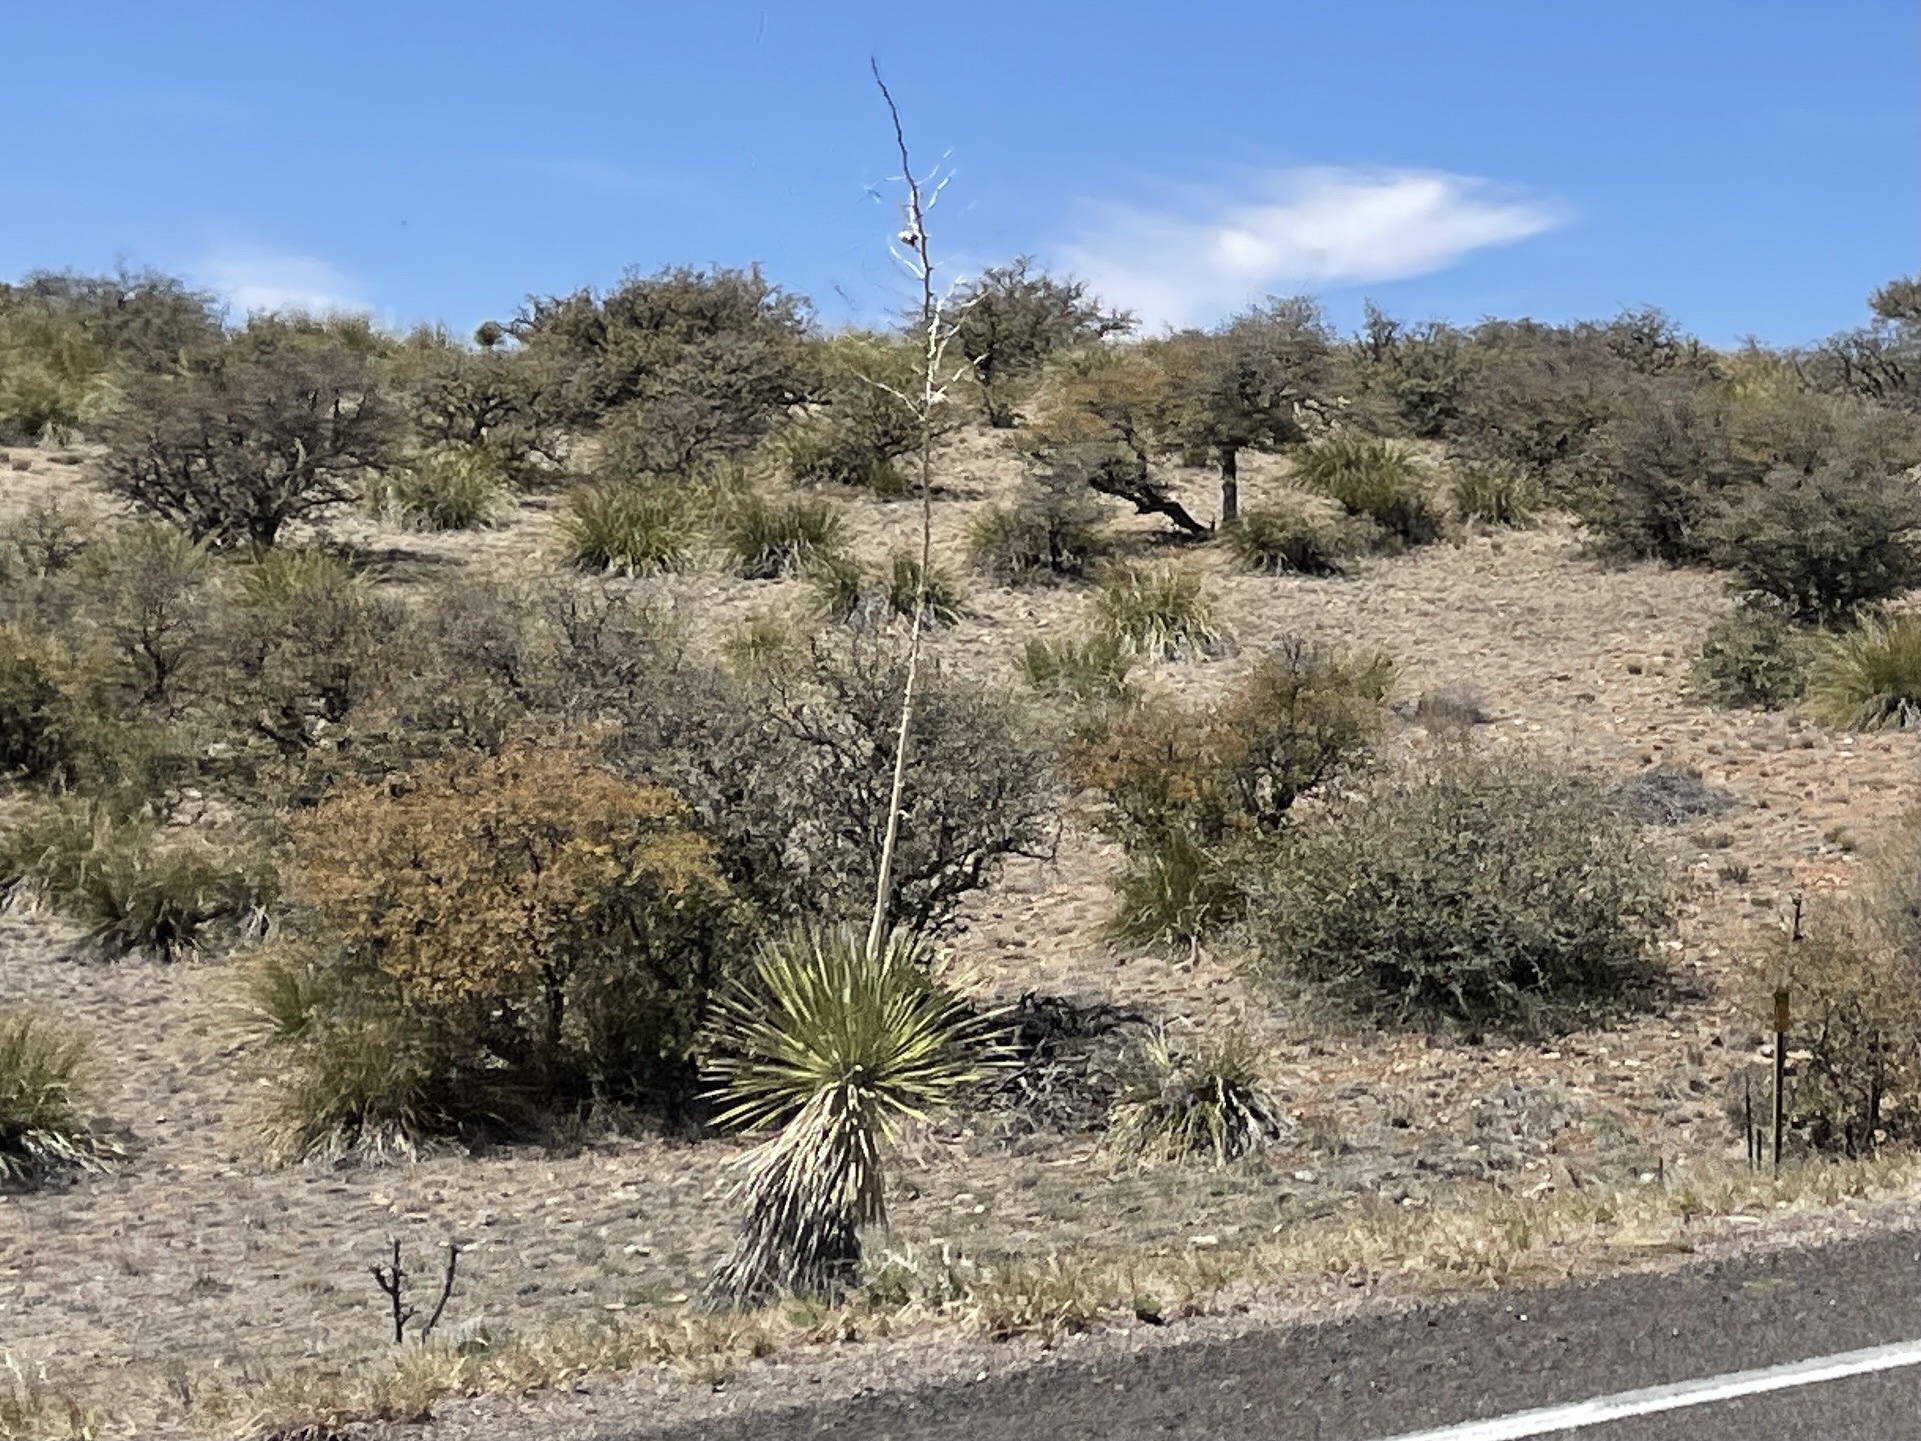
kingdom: Plantae
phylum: Tracheophyta
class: Liliopsida
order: Asparagales
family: Asparagaceae
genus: Yucca
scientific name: Yucca elata
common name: Palmella
